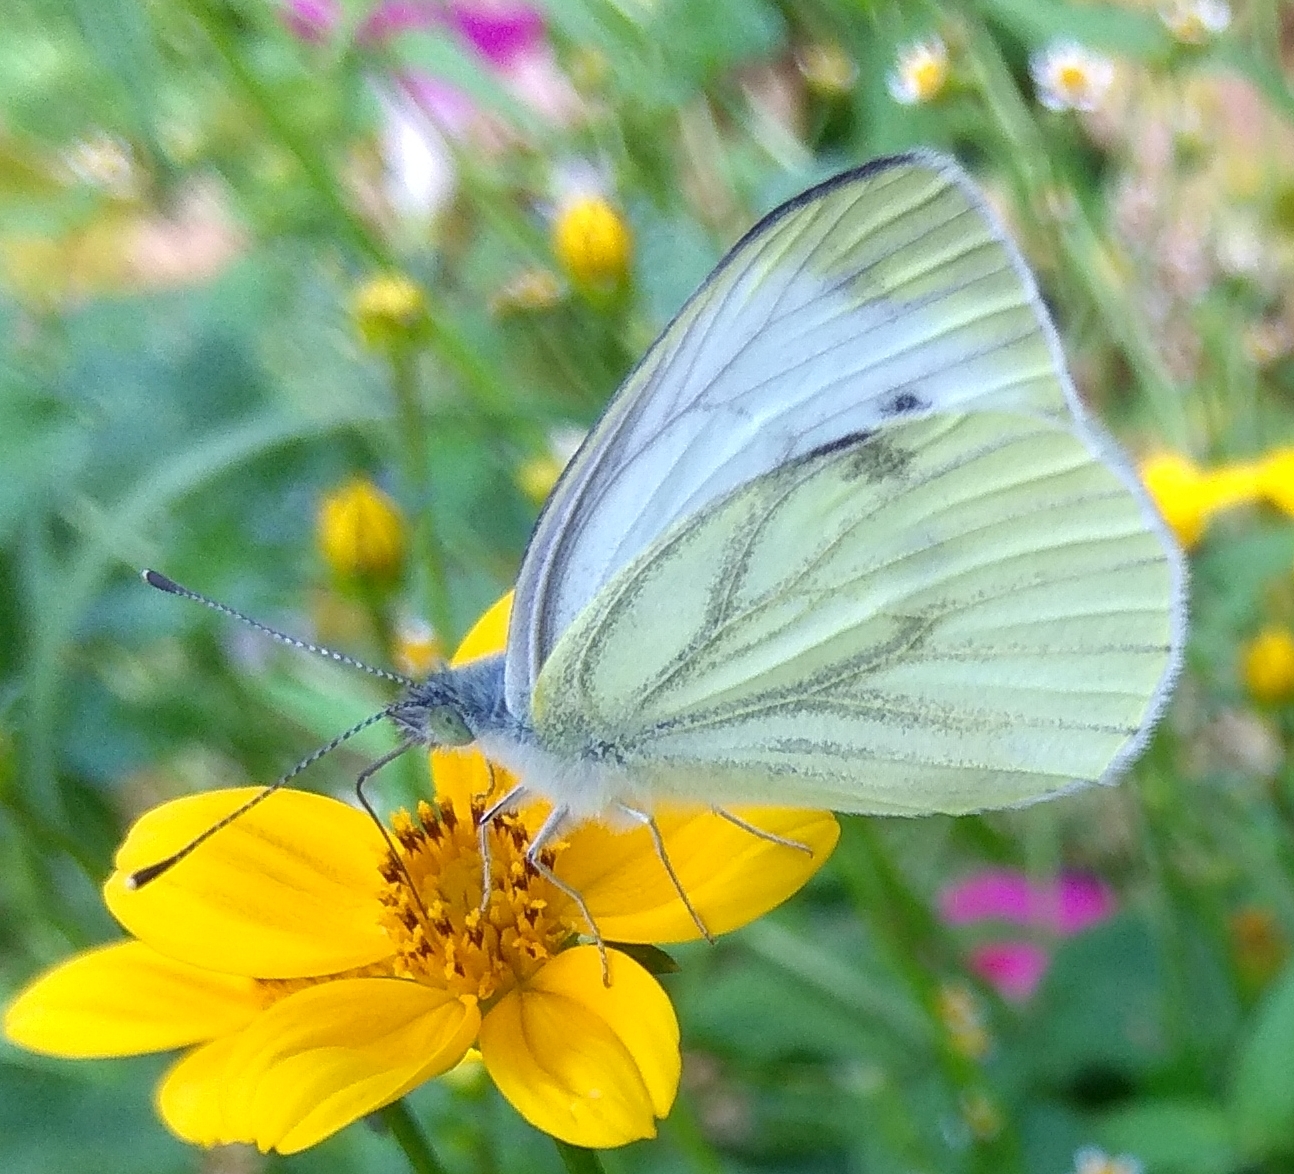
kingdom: Animalia
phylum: Arthropoda
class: Insecta
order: Lepidoptera
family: Pieridae
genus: Pieris
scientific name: Pieris napi
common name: Green-veined white
